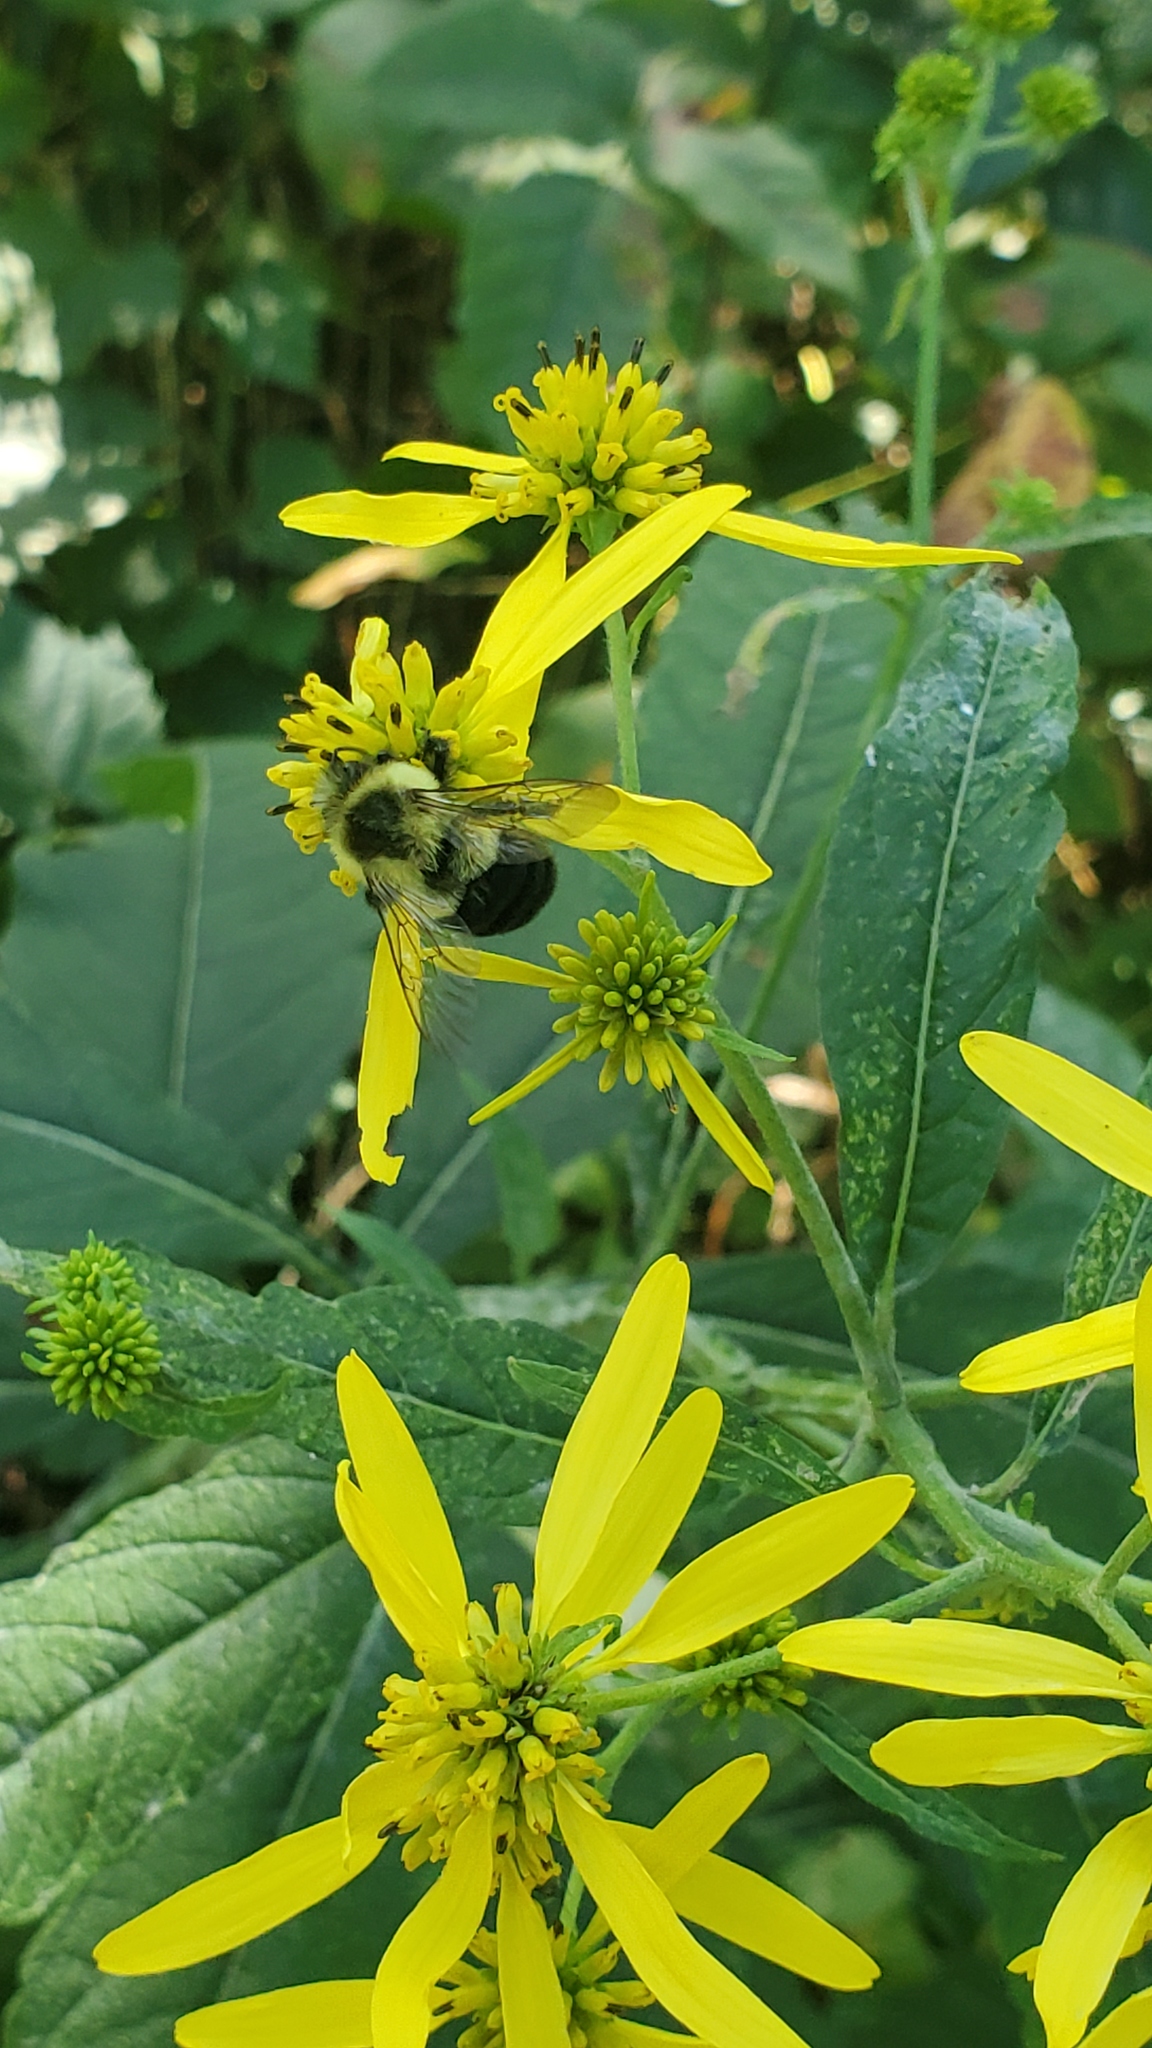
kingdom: Animalia
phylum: Arthropoda
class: Insecta
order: Hymenoptera
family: Apidae
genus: Bombus
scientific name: Bombus impatiens
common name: Common eastern bumble bee
